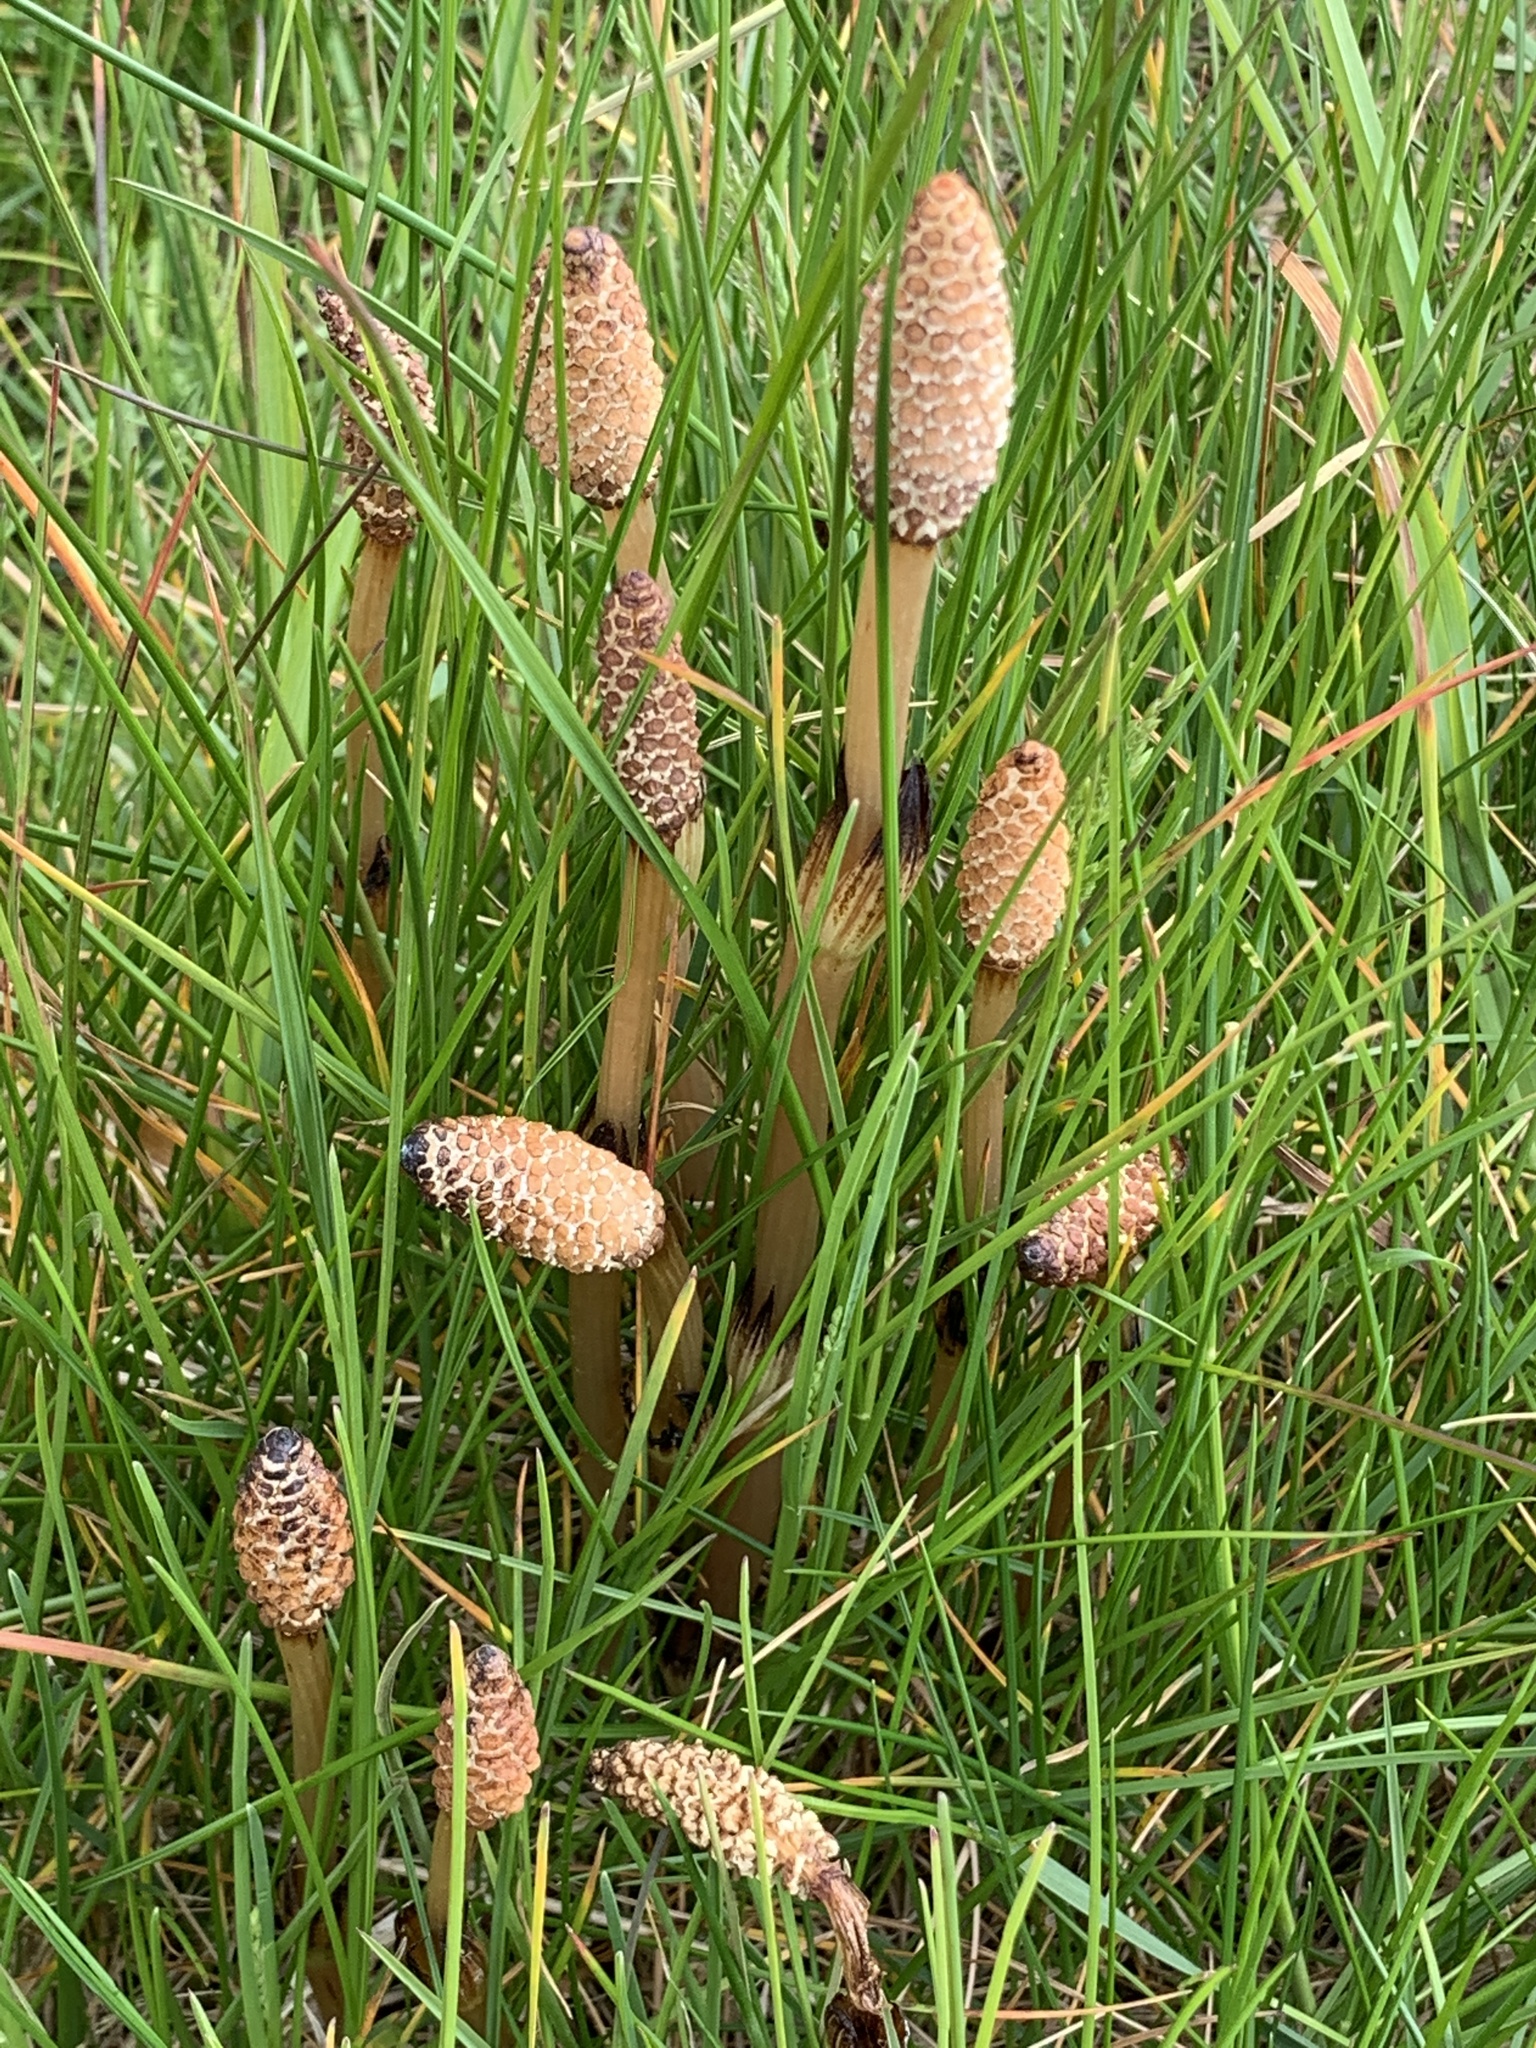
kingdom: Plantae
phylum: Tracheophyta
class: Polypodiopsida
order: Equisetales
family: Equisetaceae
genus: Equisetum
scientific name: Equisetum arvense
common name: Field horsetail
